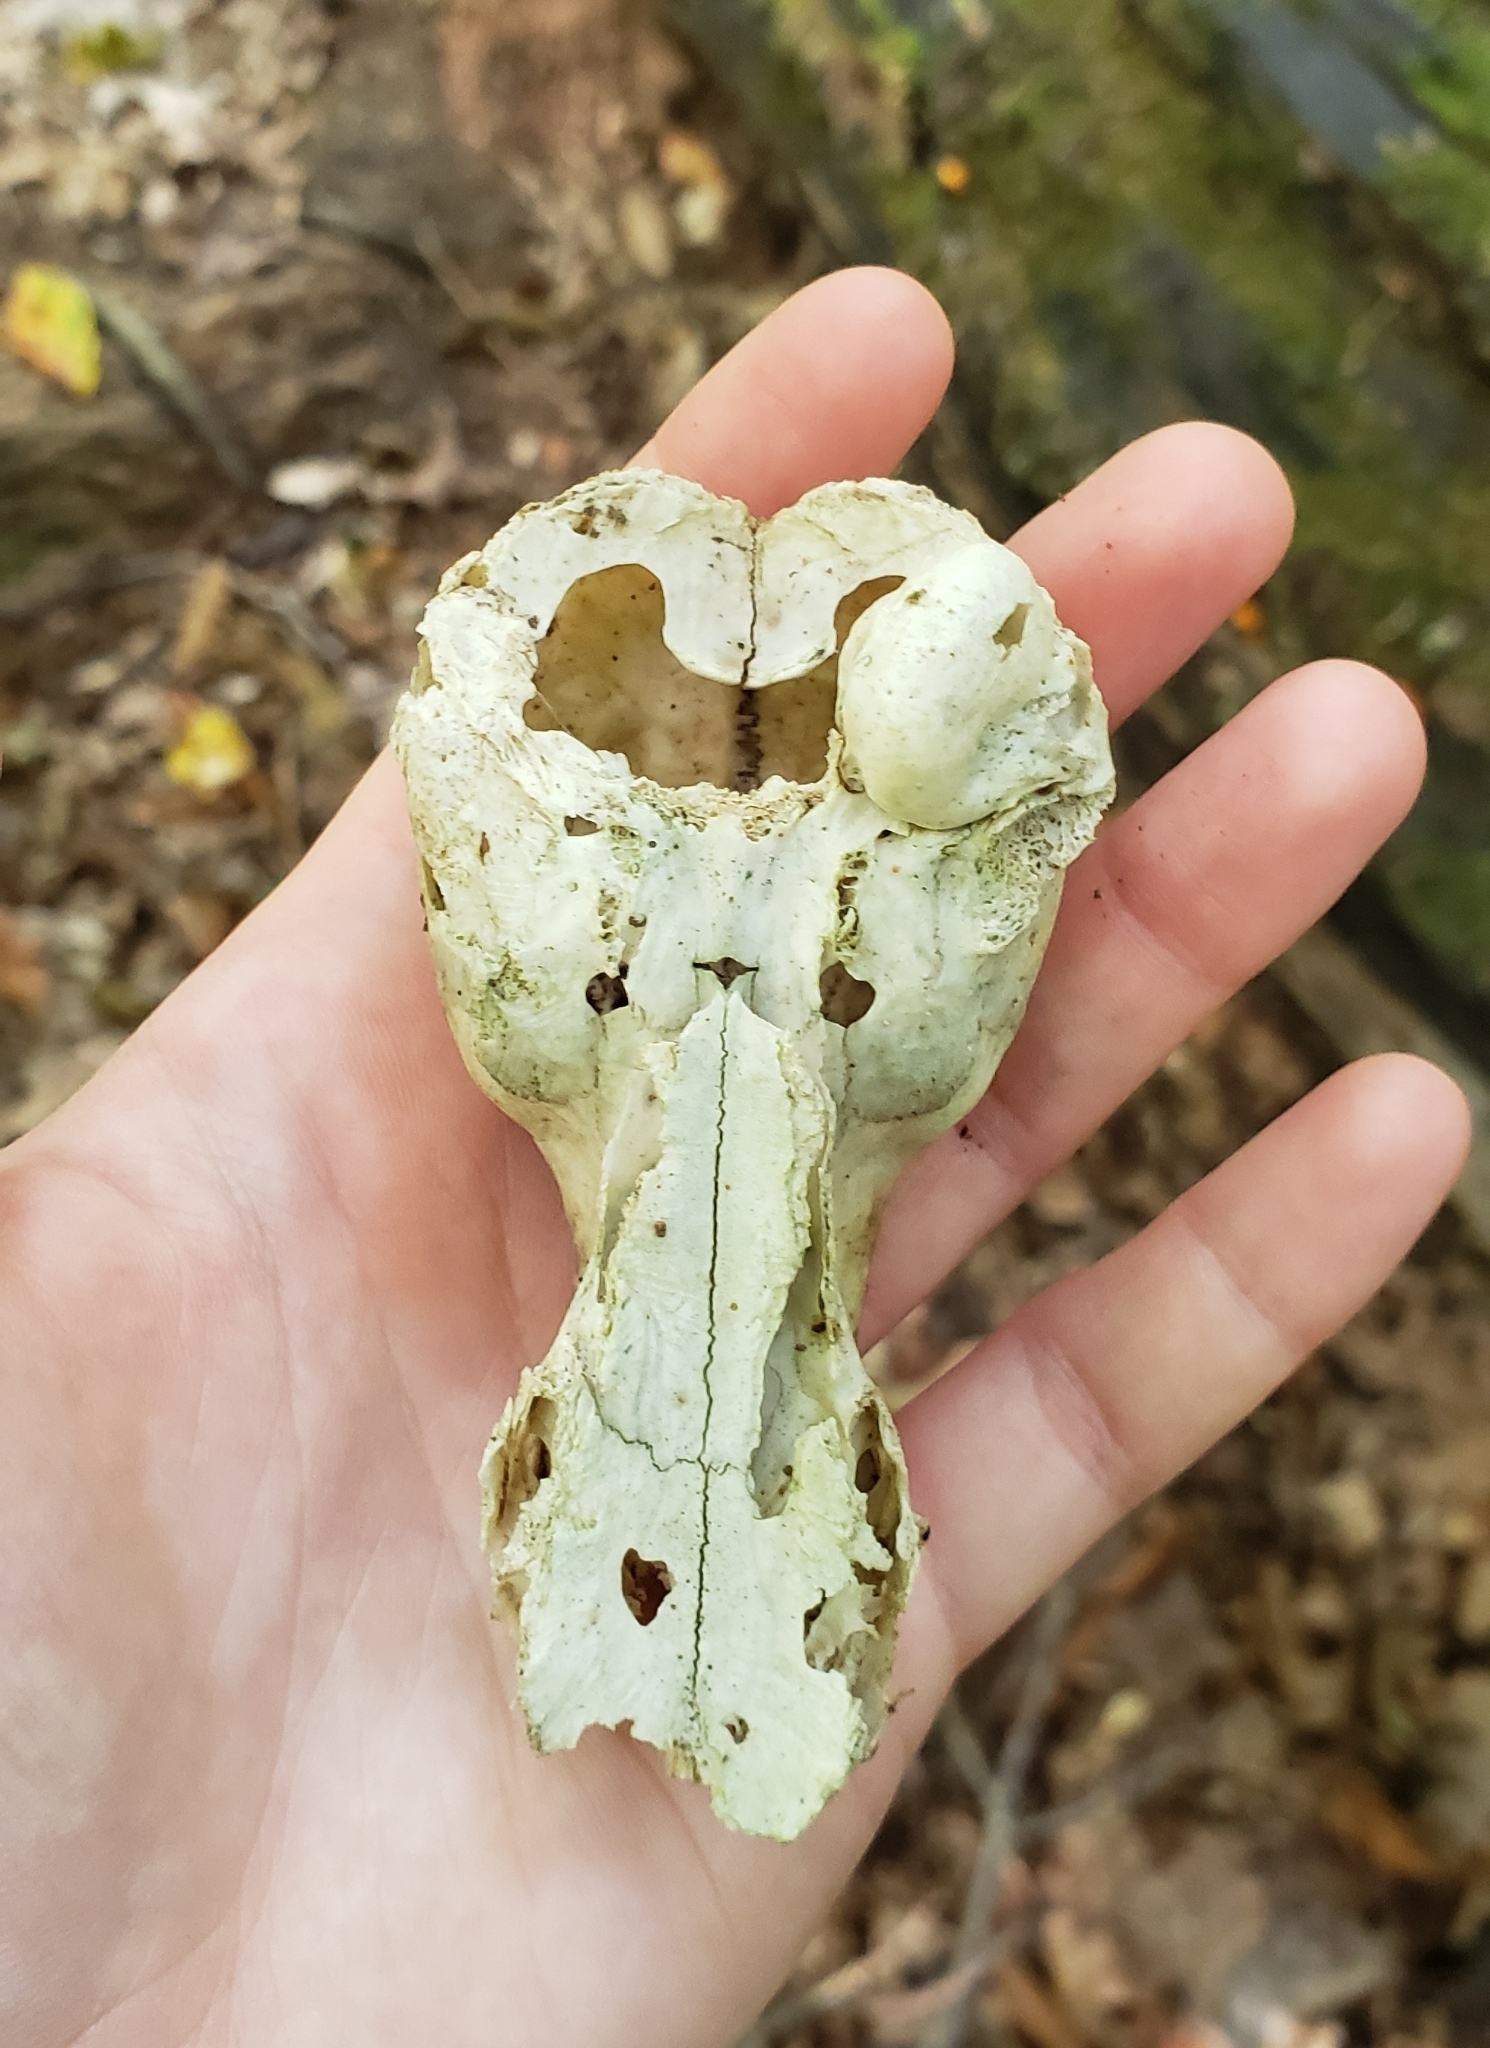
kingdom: Animalia
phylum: Chordata
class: Mammalia
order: Carnivora
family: Procyonidae
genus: Procyon
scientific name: Procyon lotor
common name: Raccoon
